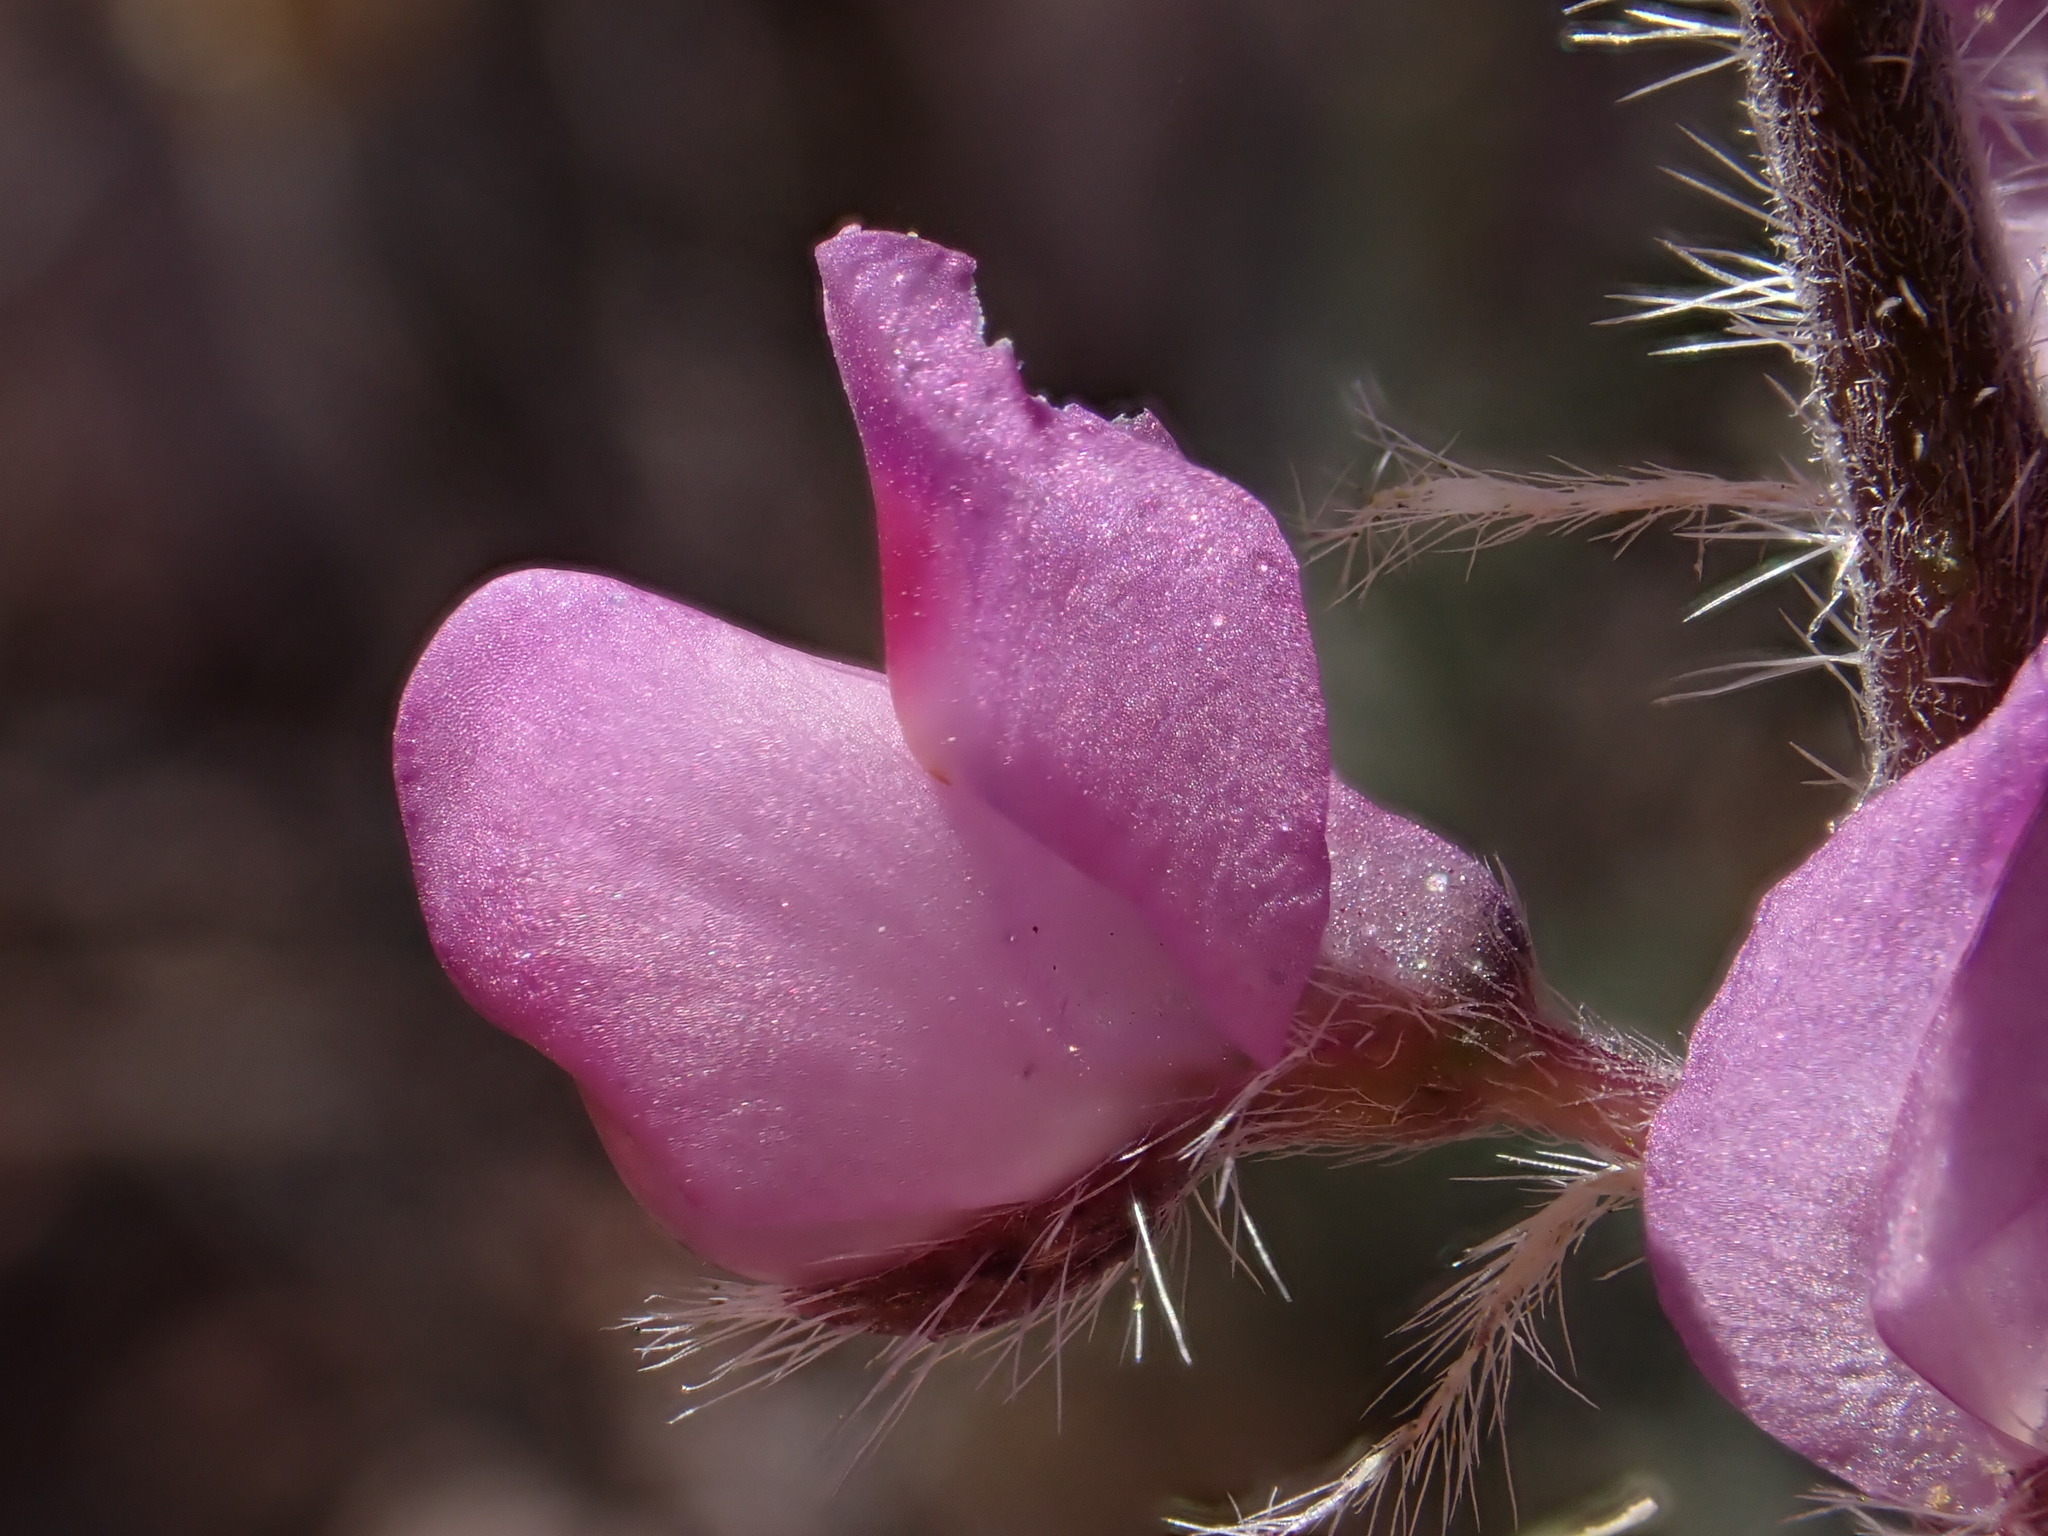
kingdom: Plantae
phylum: Tracheophyta
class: Magnoliopsida
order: Fabales
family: Fabaceae
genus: Lupinus
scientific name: Lupinus arizonicus
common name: Arizona lupine
